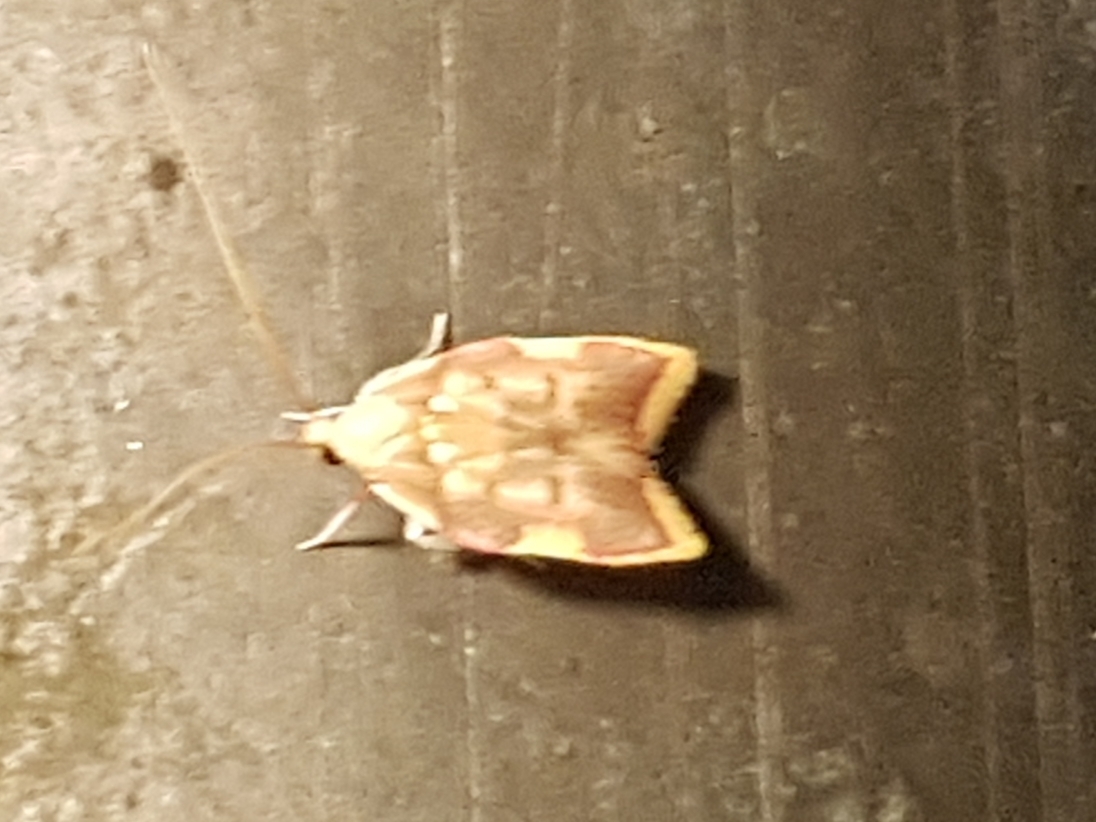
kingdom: Animalia
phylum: Arthropoda
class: Insecta
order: Lepidoptera
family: Peleopodidae
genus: Carcina
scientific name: Carcina quercana
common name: Moth
